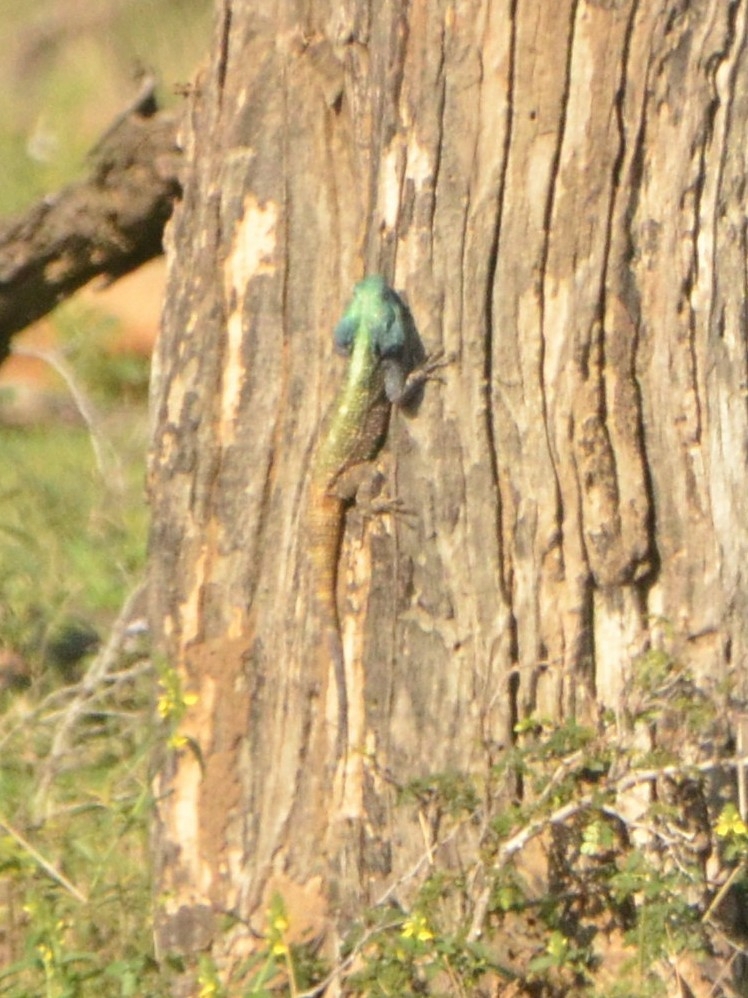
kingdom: Animalia
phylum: Chordata
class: Squamata
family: Agamidae
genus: Acanthocercus
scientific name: Acanthocercus atricollis
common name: Southern tree agama
